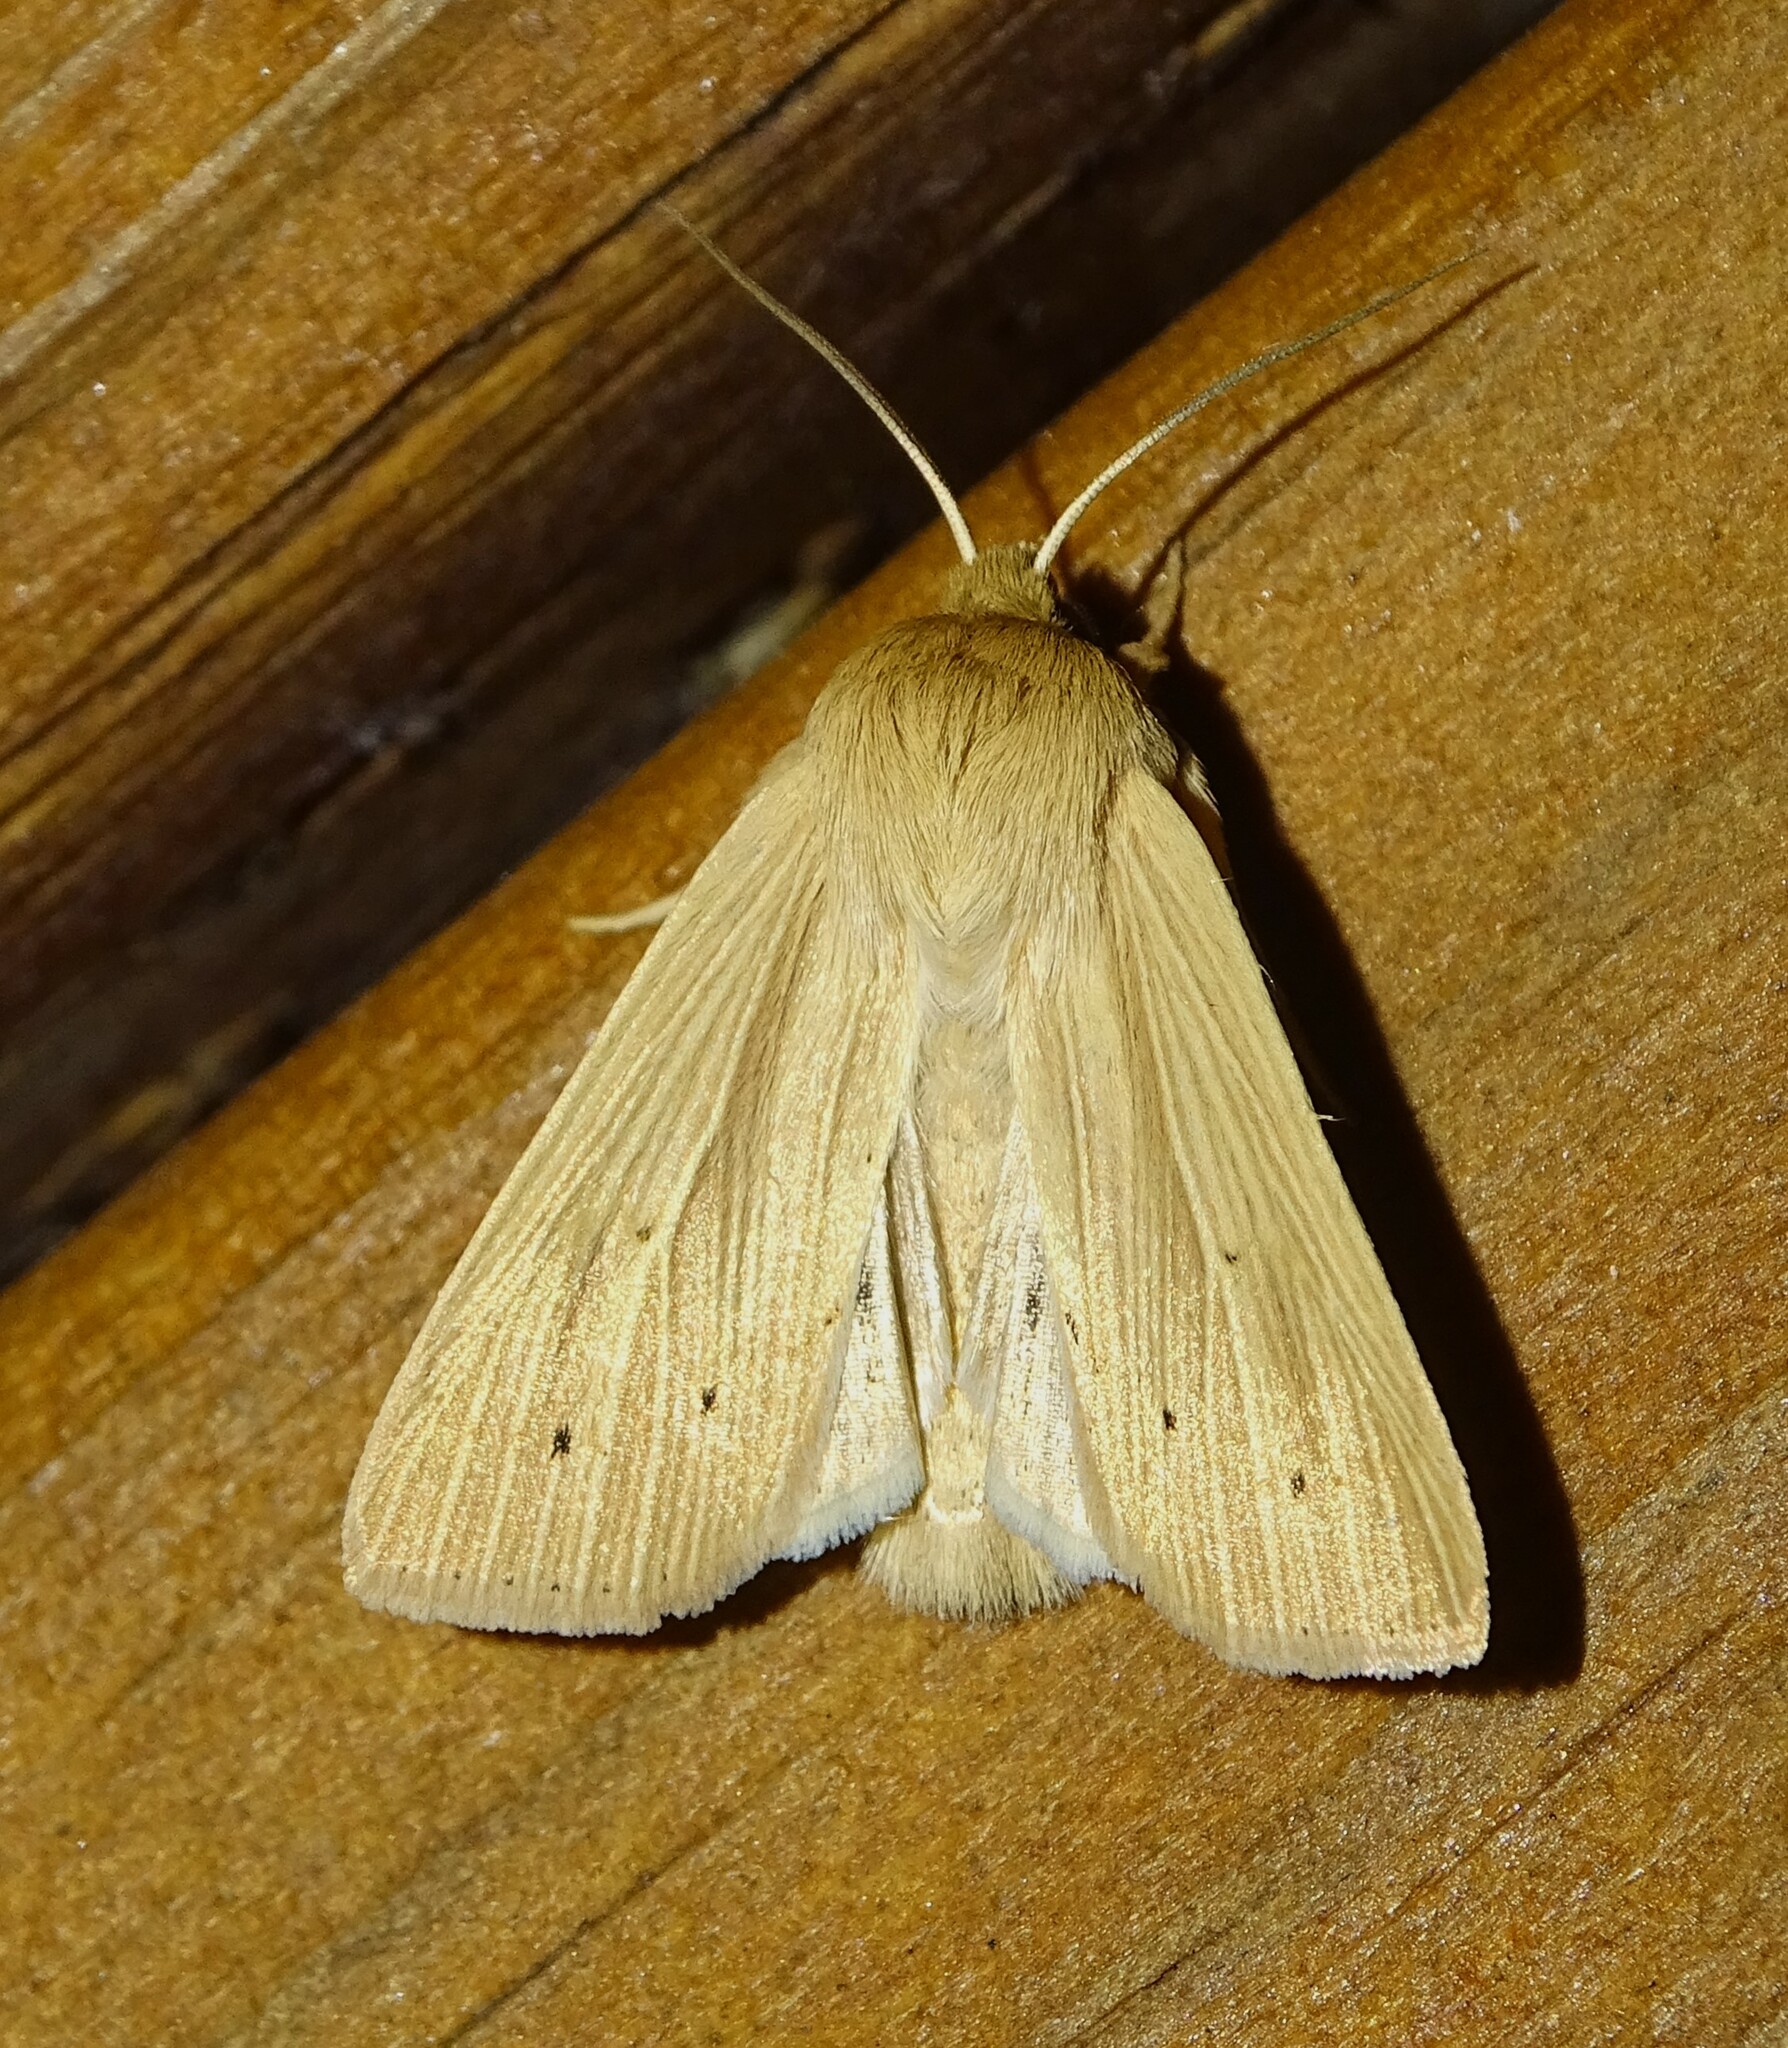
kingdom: Animalia
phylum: Arthropoda
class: Insecta
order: Lepidoptera
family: Noctuidae
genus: Mythimna
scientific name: Mythimna oxygala
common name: Lesser wainscot
